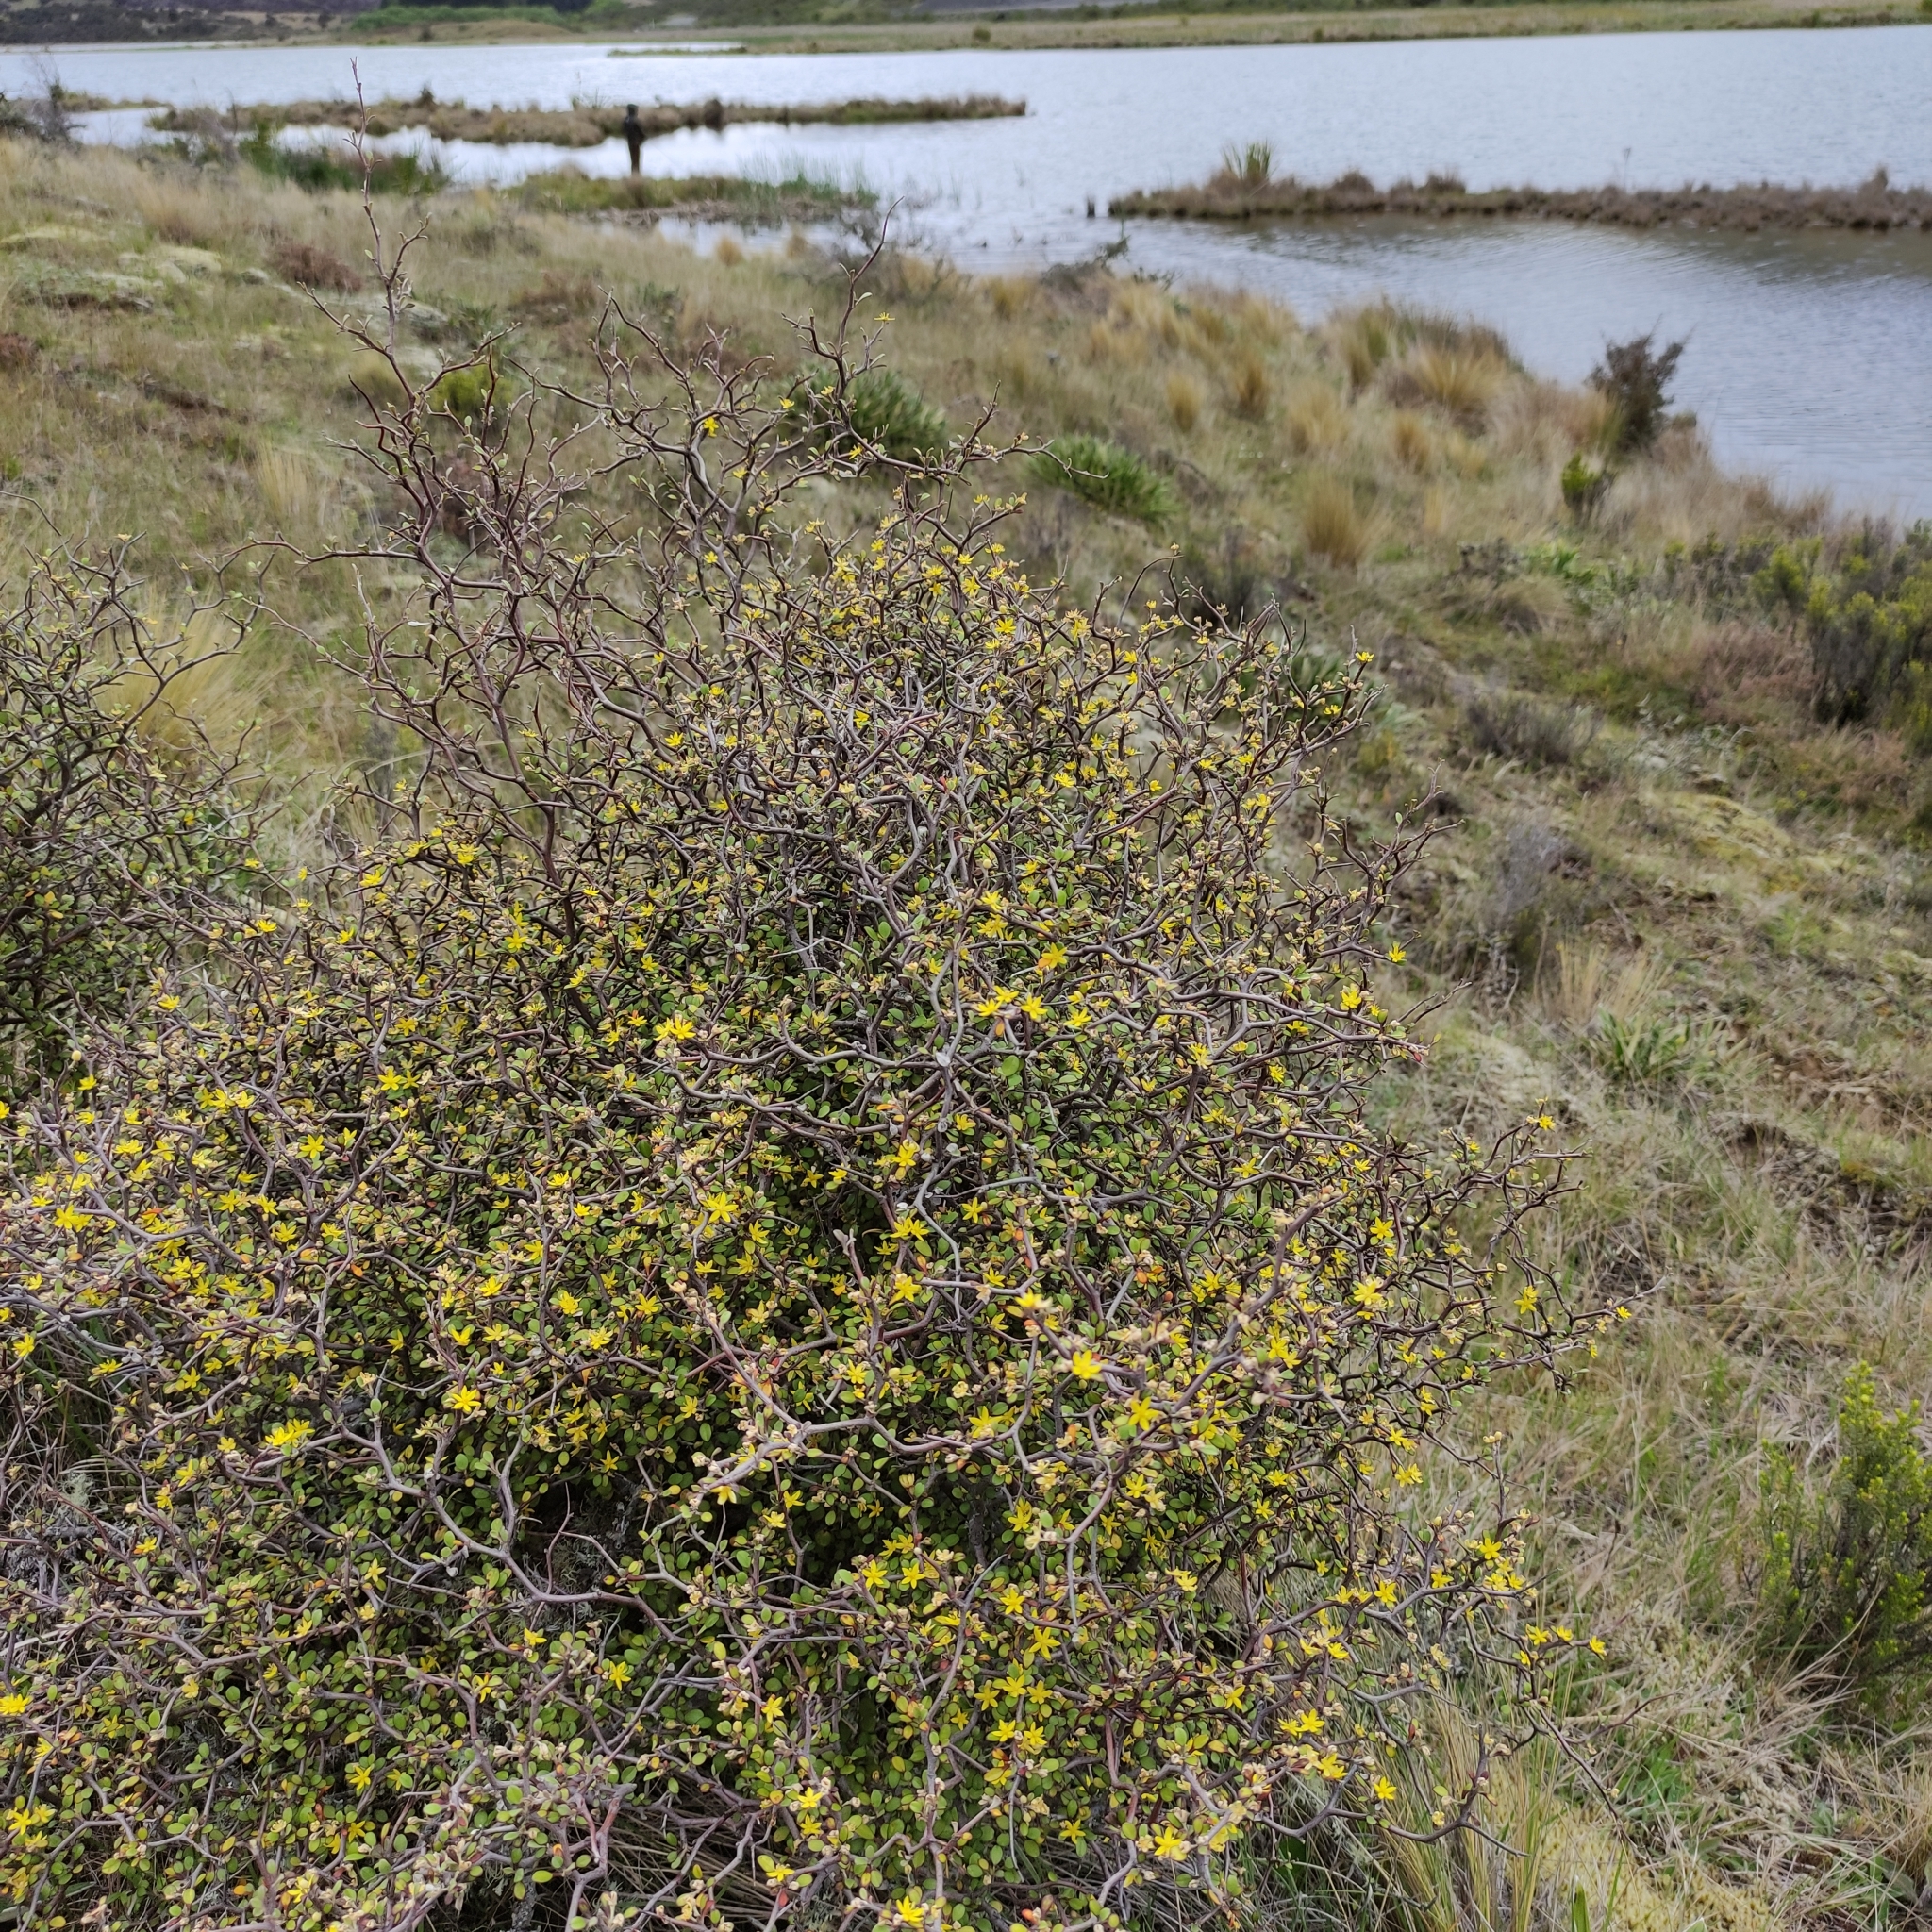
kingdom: Plantae
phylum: Tracheophyta
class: Magnoliopsida
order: Asterales
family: Argophyllaceae
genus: Corokia
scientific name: Corokia cotoneaster
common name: Wire nettingbush
